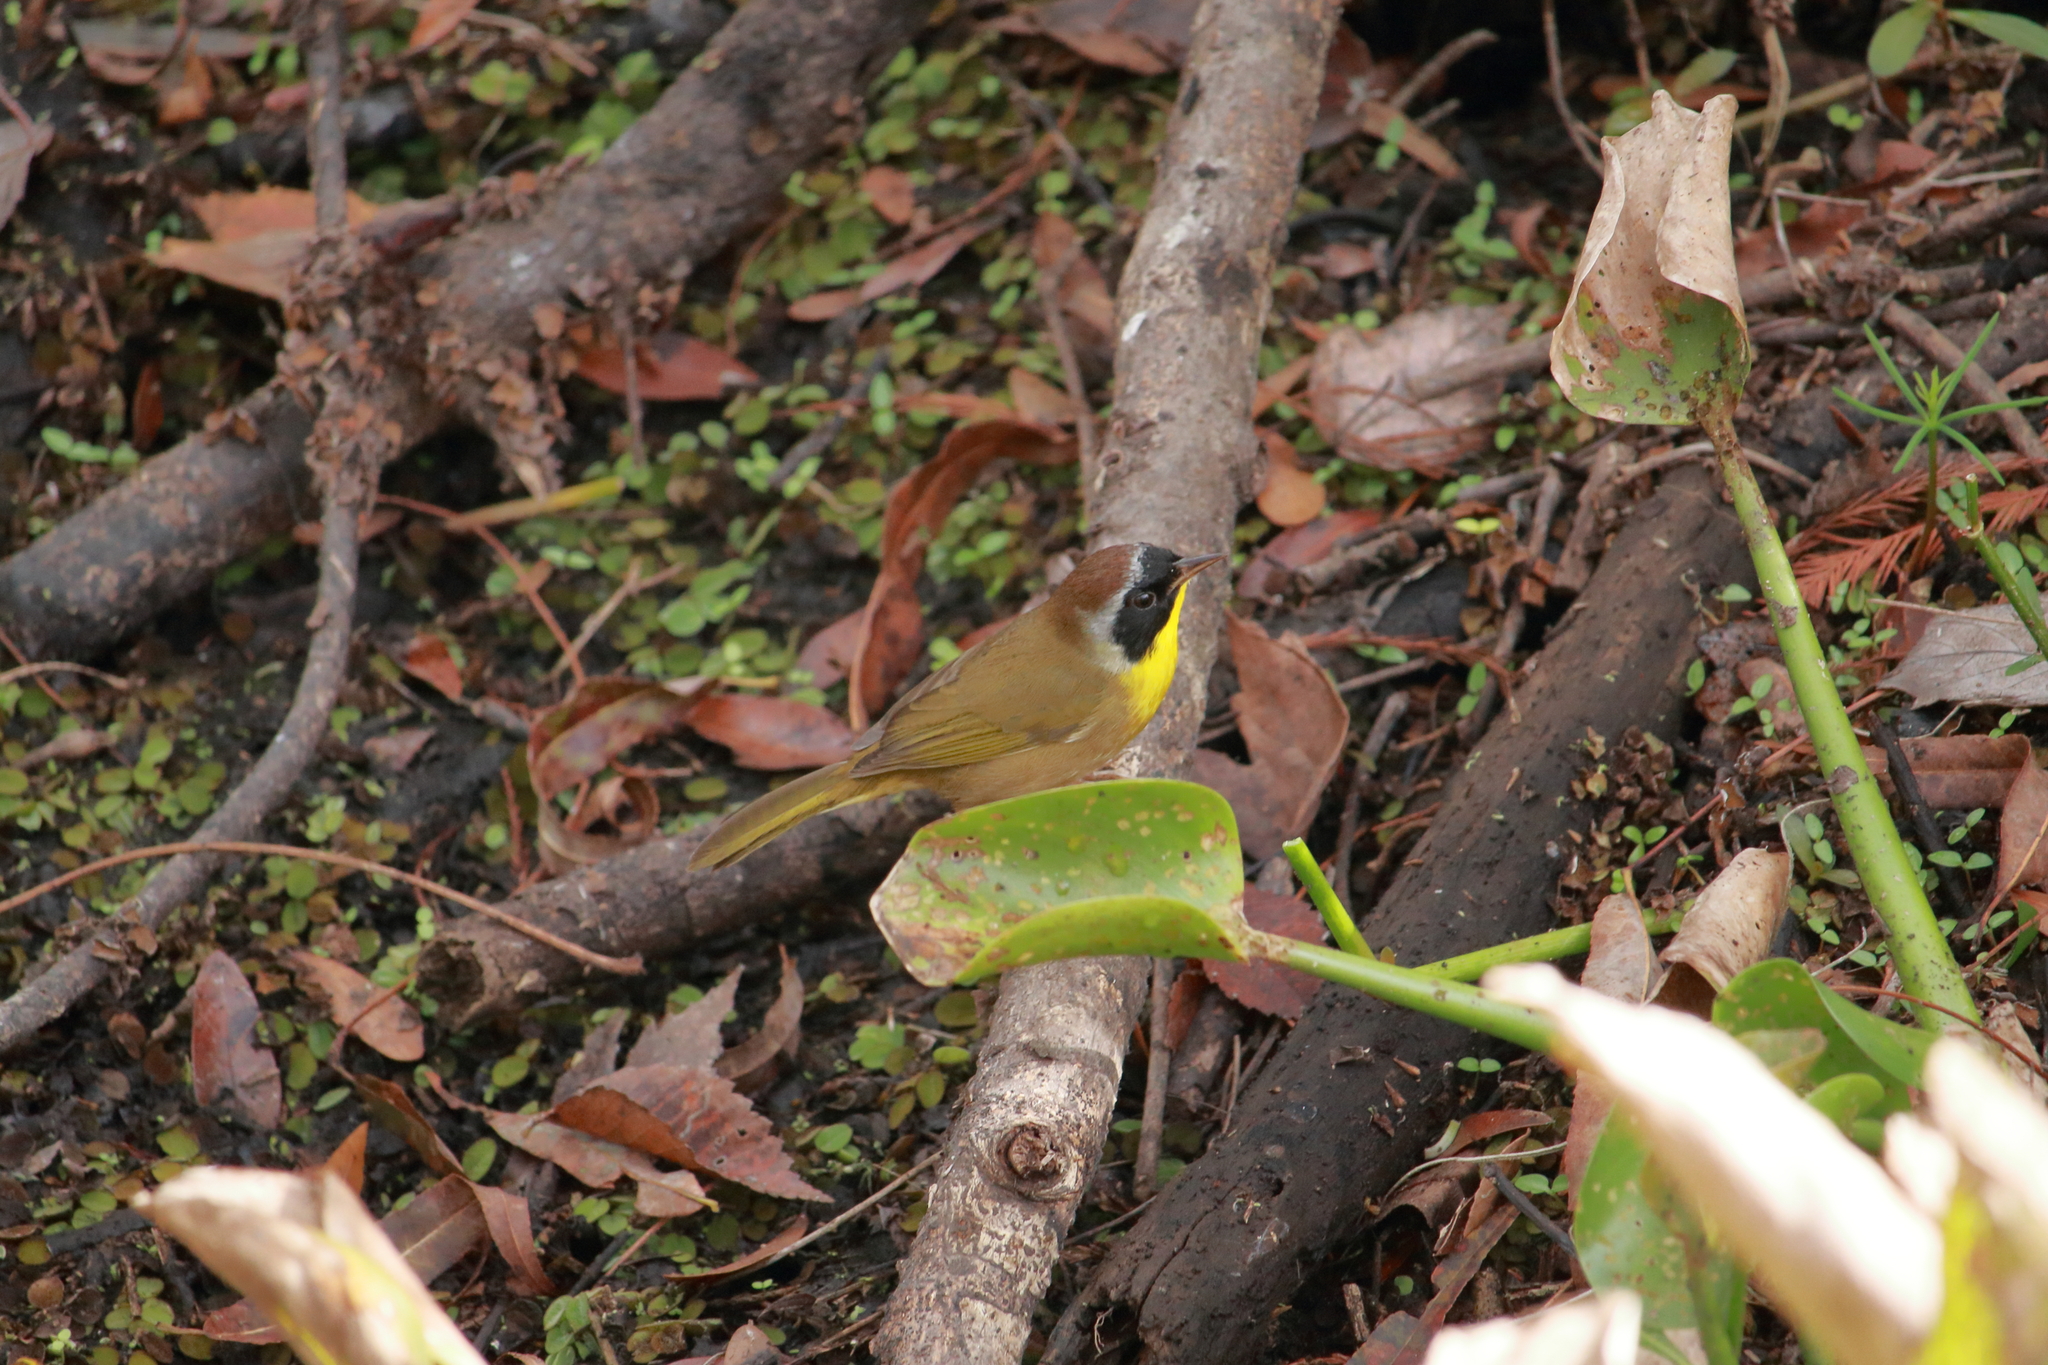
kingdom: Animalia
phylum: Chordata
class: Aves
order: Passeriformes
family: Parulidae
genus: Geothlypis
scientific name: Geothlypis trichas
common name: Common yellowthroat
